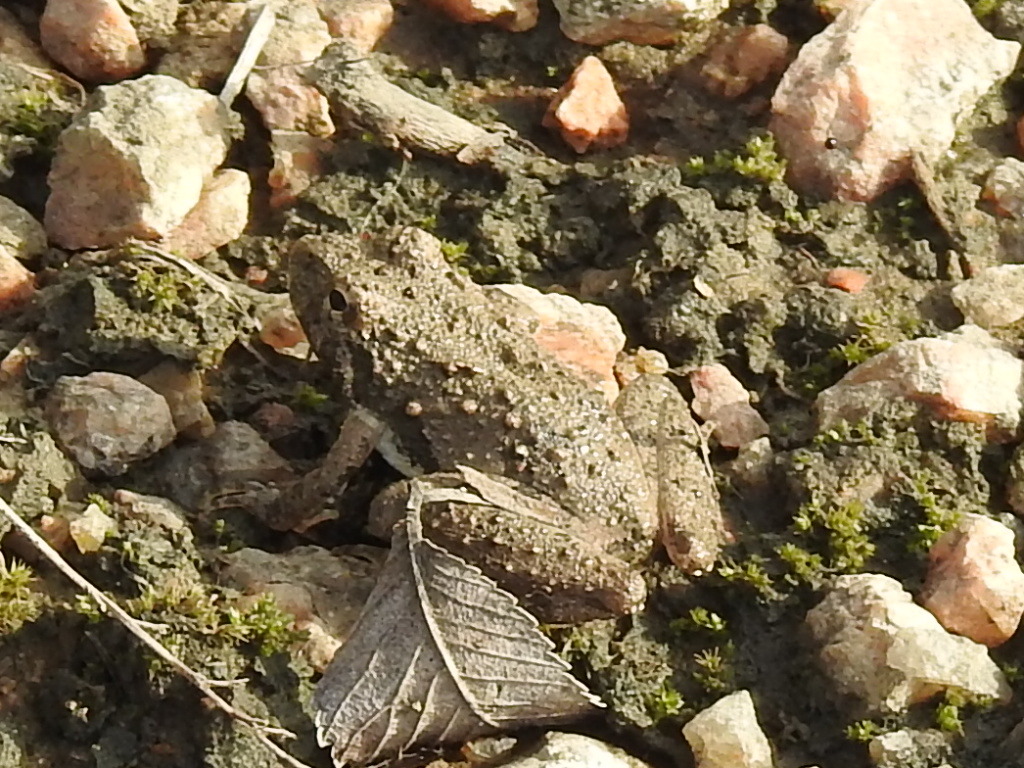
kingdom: Animalia
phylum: Chordata
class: Amphibia
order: Anura
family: Hylidae
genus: Acris
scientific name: Acris blanchardi
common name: Blanchard's cricket frog
